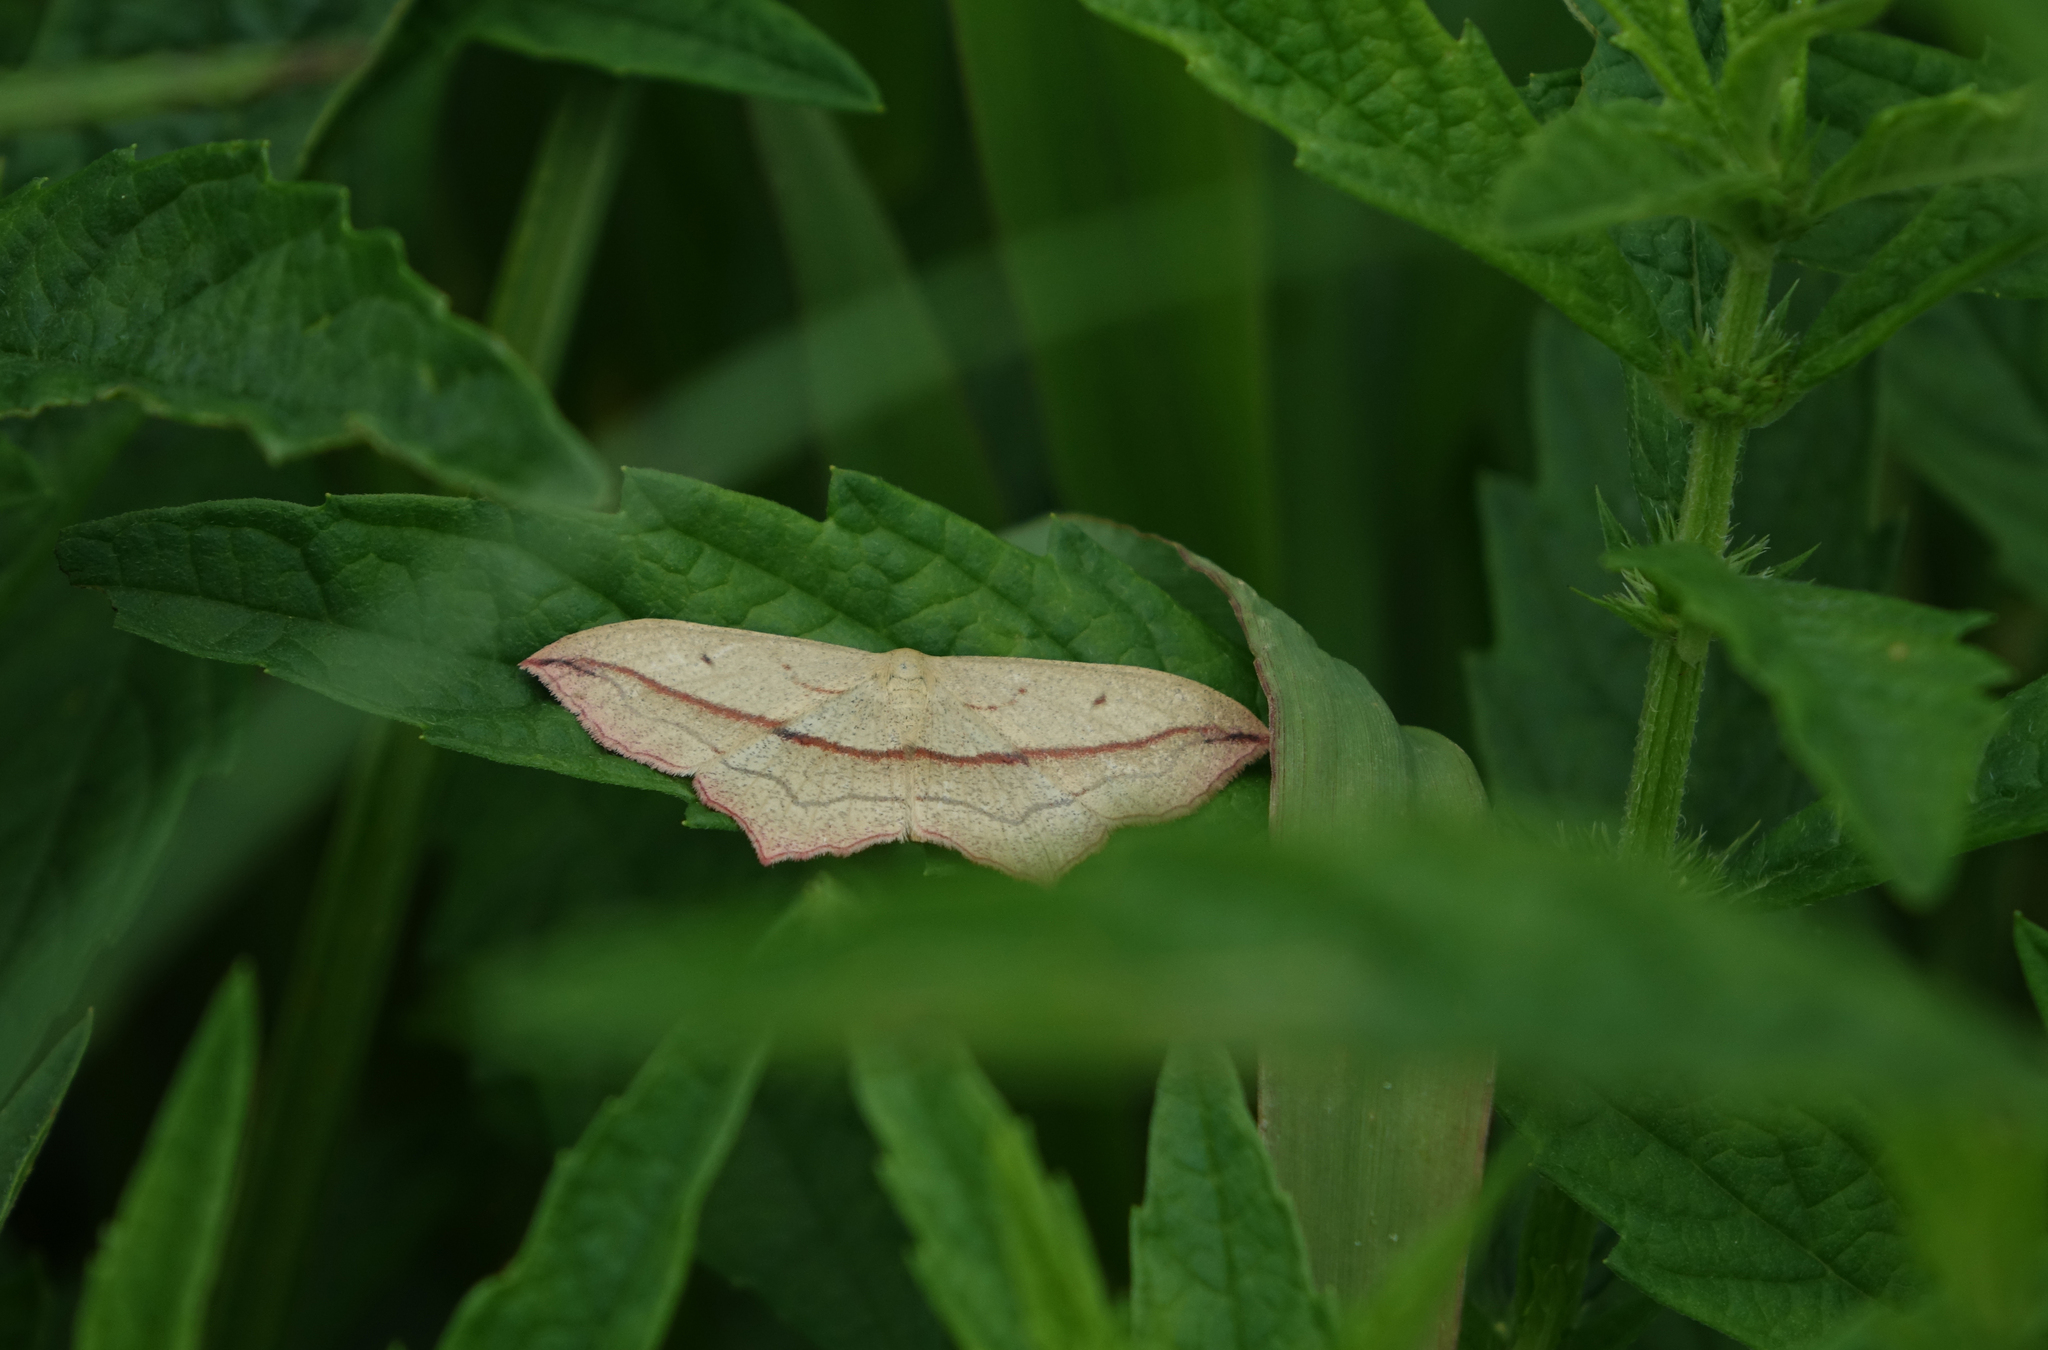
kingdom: Animalia
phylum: Arthropoda
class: Insecta
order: Lepidoptera
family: Geometridae
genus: Timandra
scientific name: Timandra comae
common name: Blood-vein
